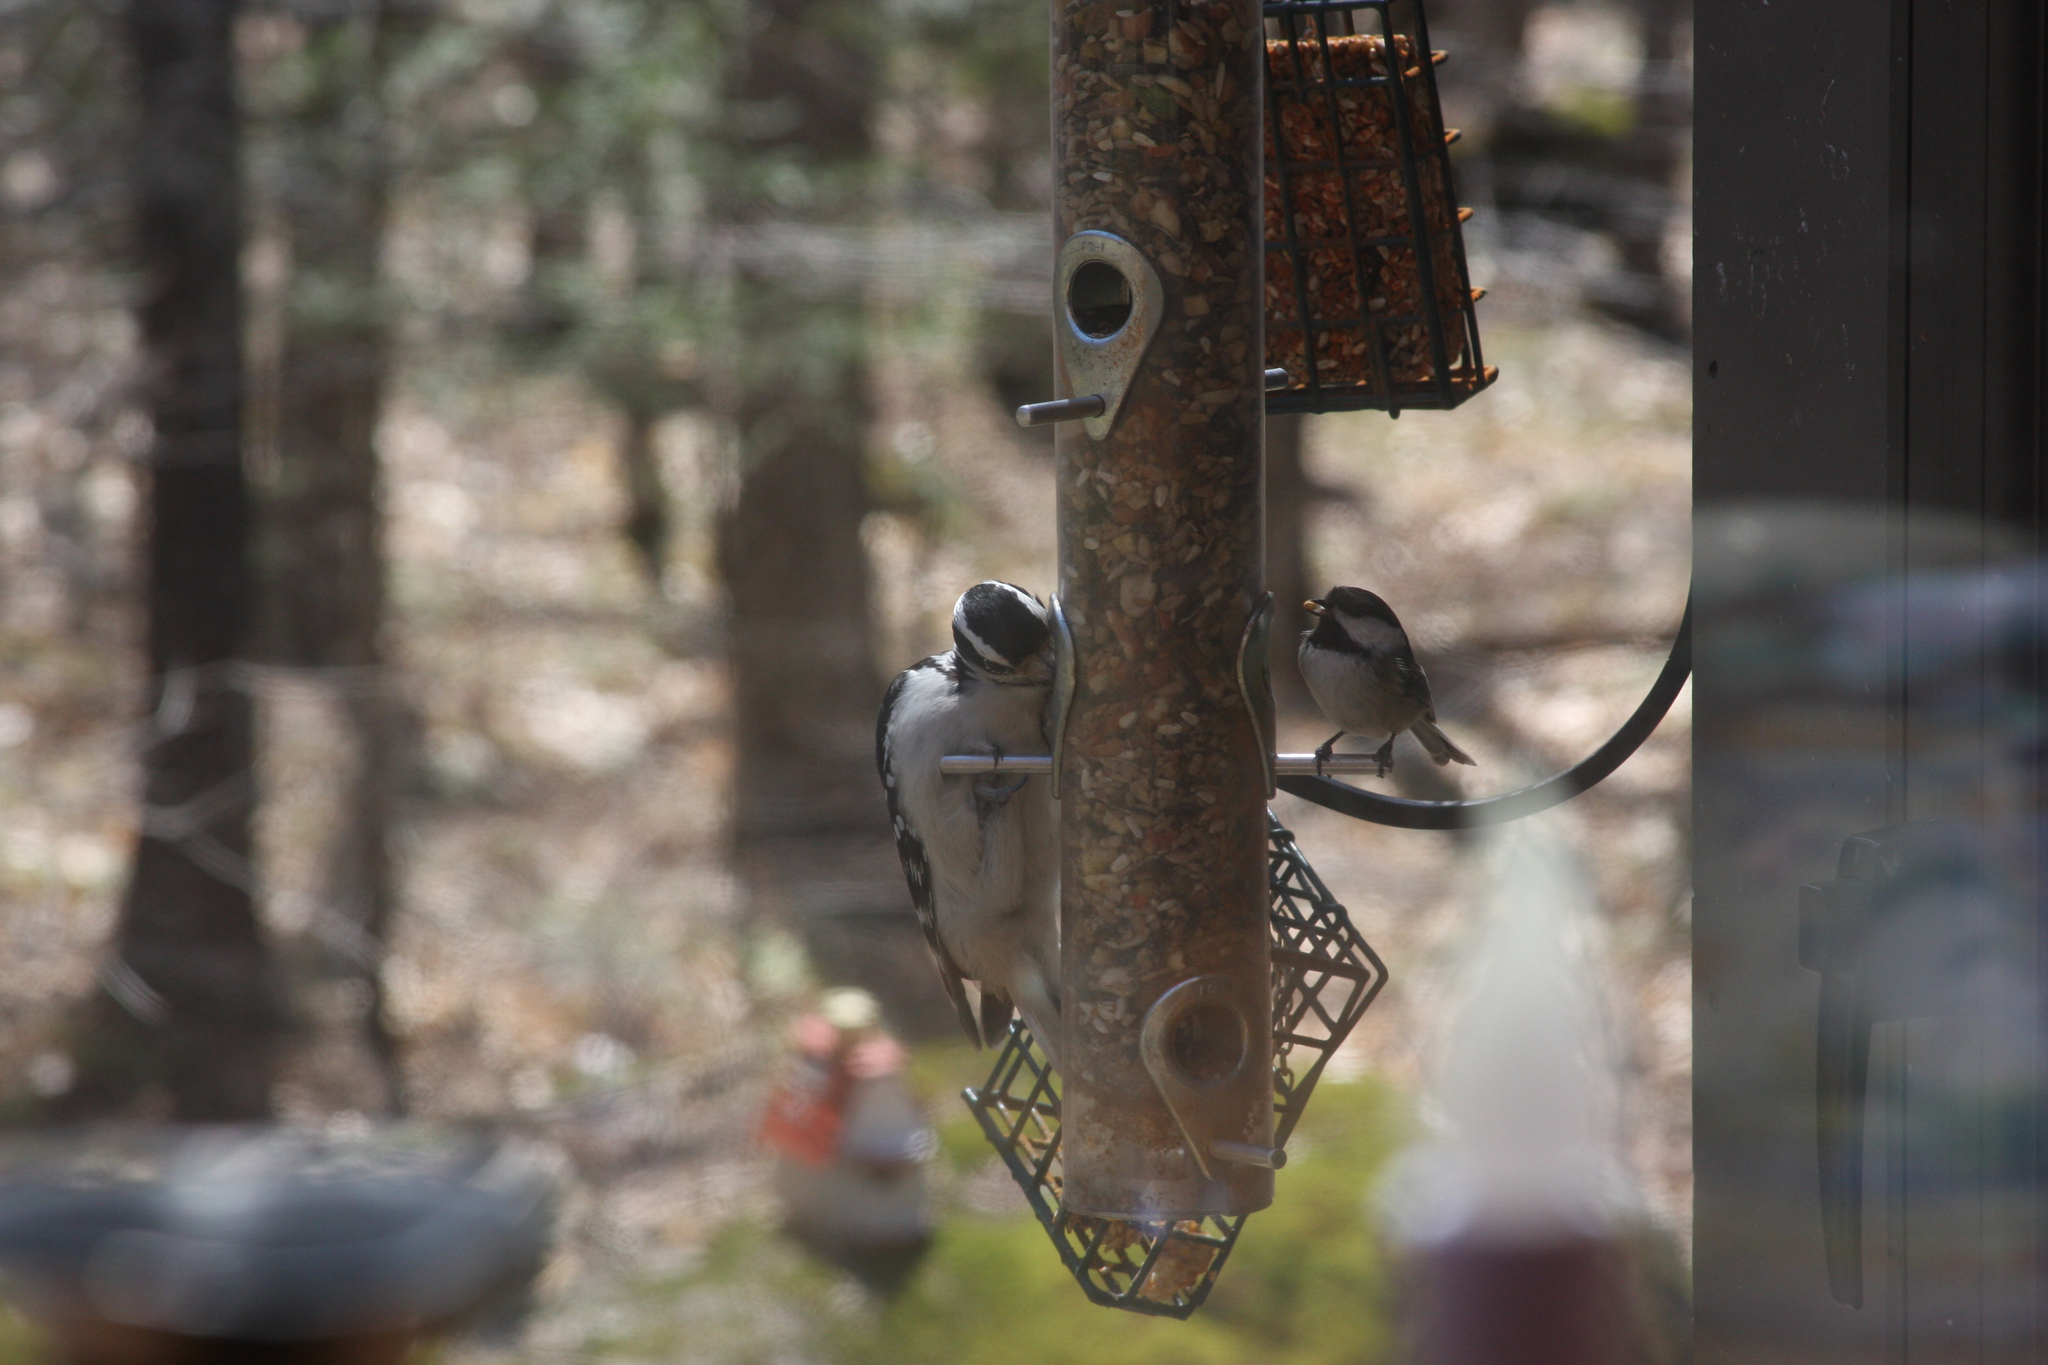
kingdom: Animalia
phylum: Chordata
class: Aves
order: Piciformes
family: Picidae
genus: Leuconotopicus
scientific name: Leuconotopicus villosus
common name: Hairy woodpecker
